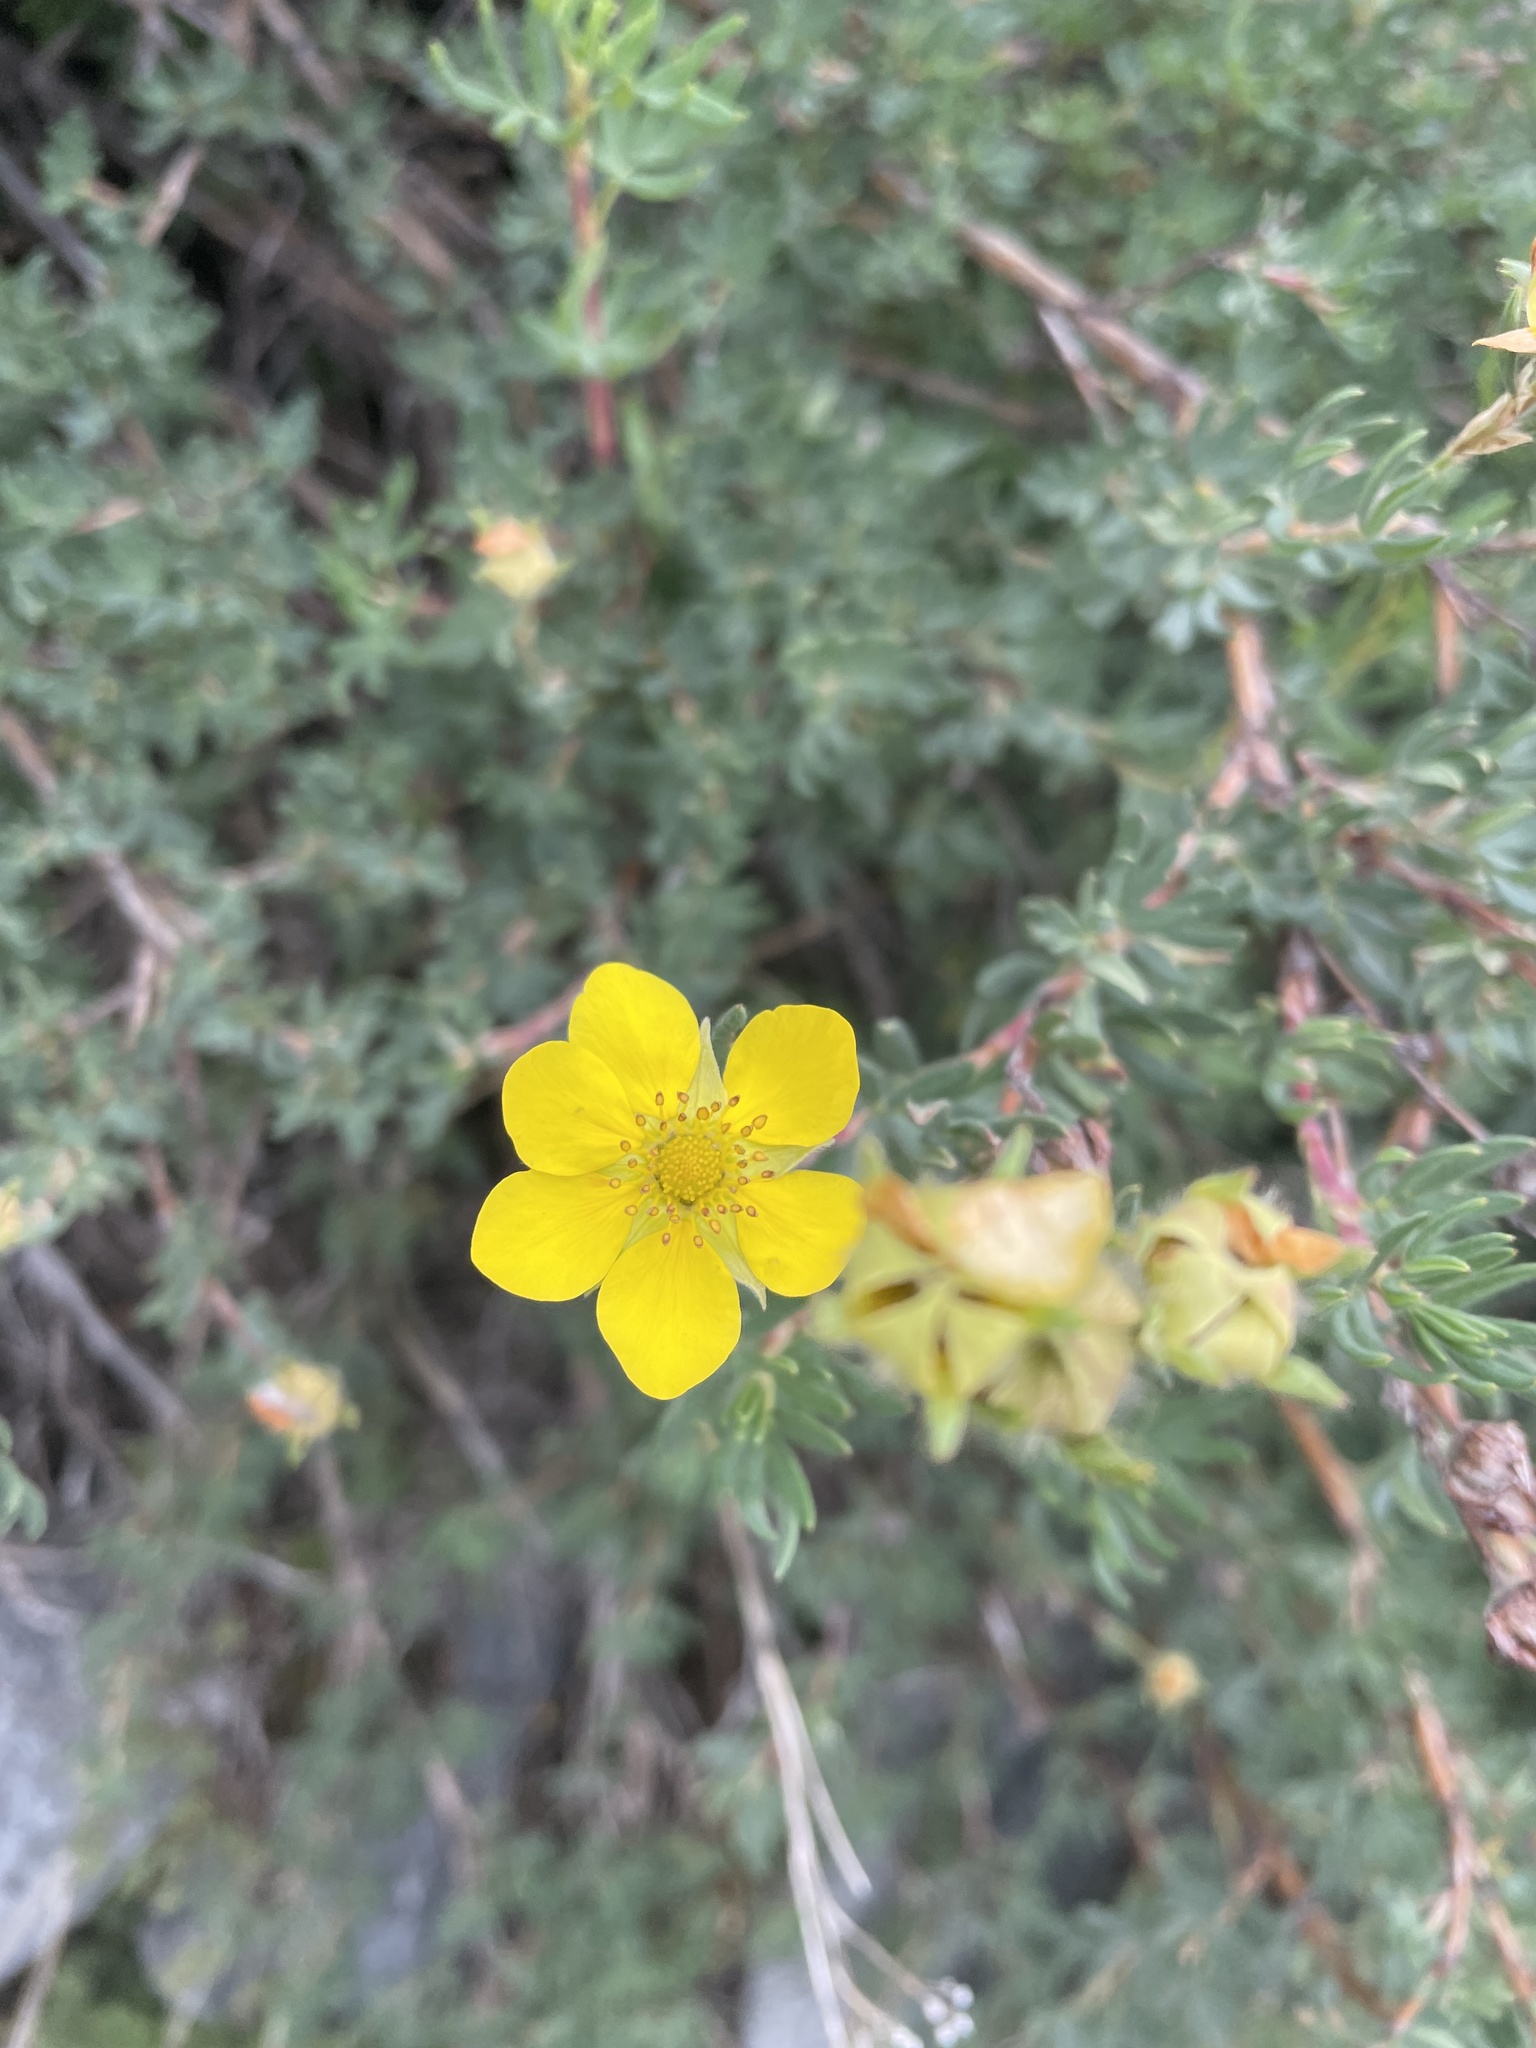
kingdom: Plantae
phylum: Tracheophyta
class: Magnoliopsida
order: Rosales
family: Rosaceae
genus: Dasiphora
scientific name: Dasiphora fruticosa
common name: Shrubby cinquefoil
